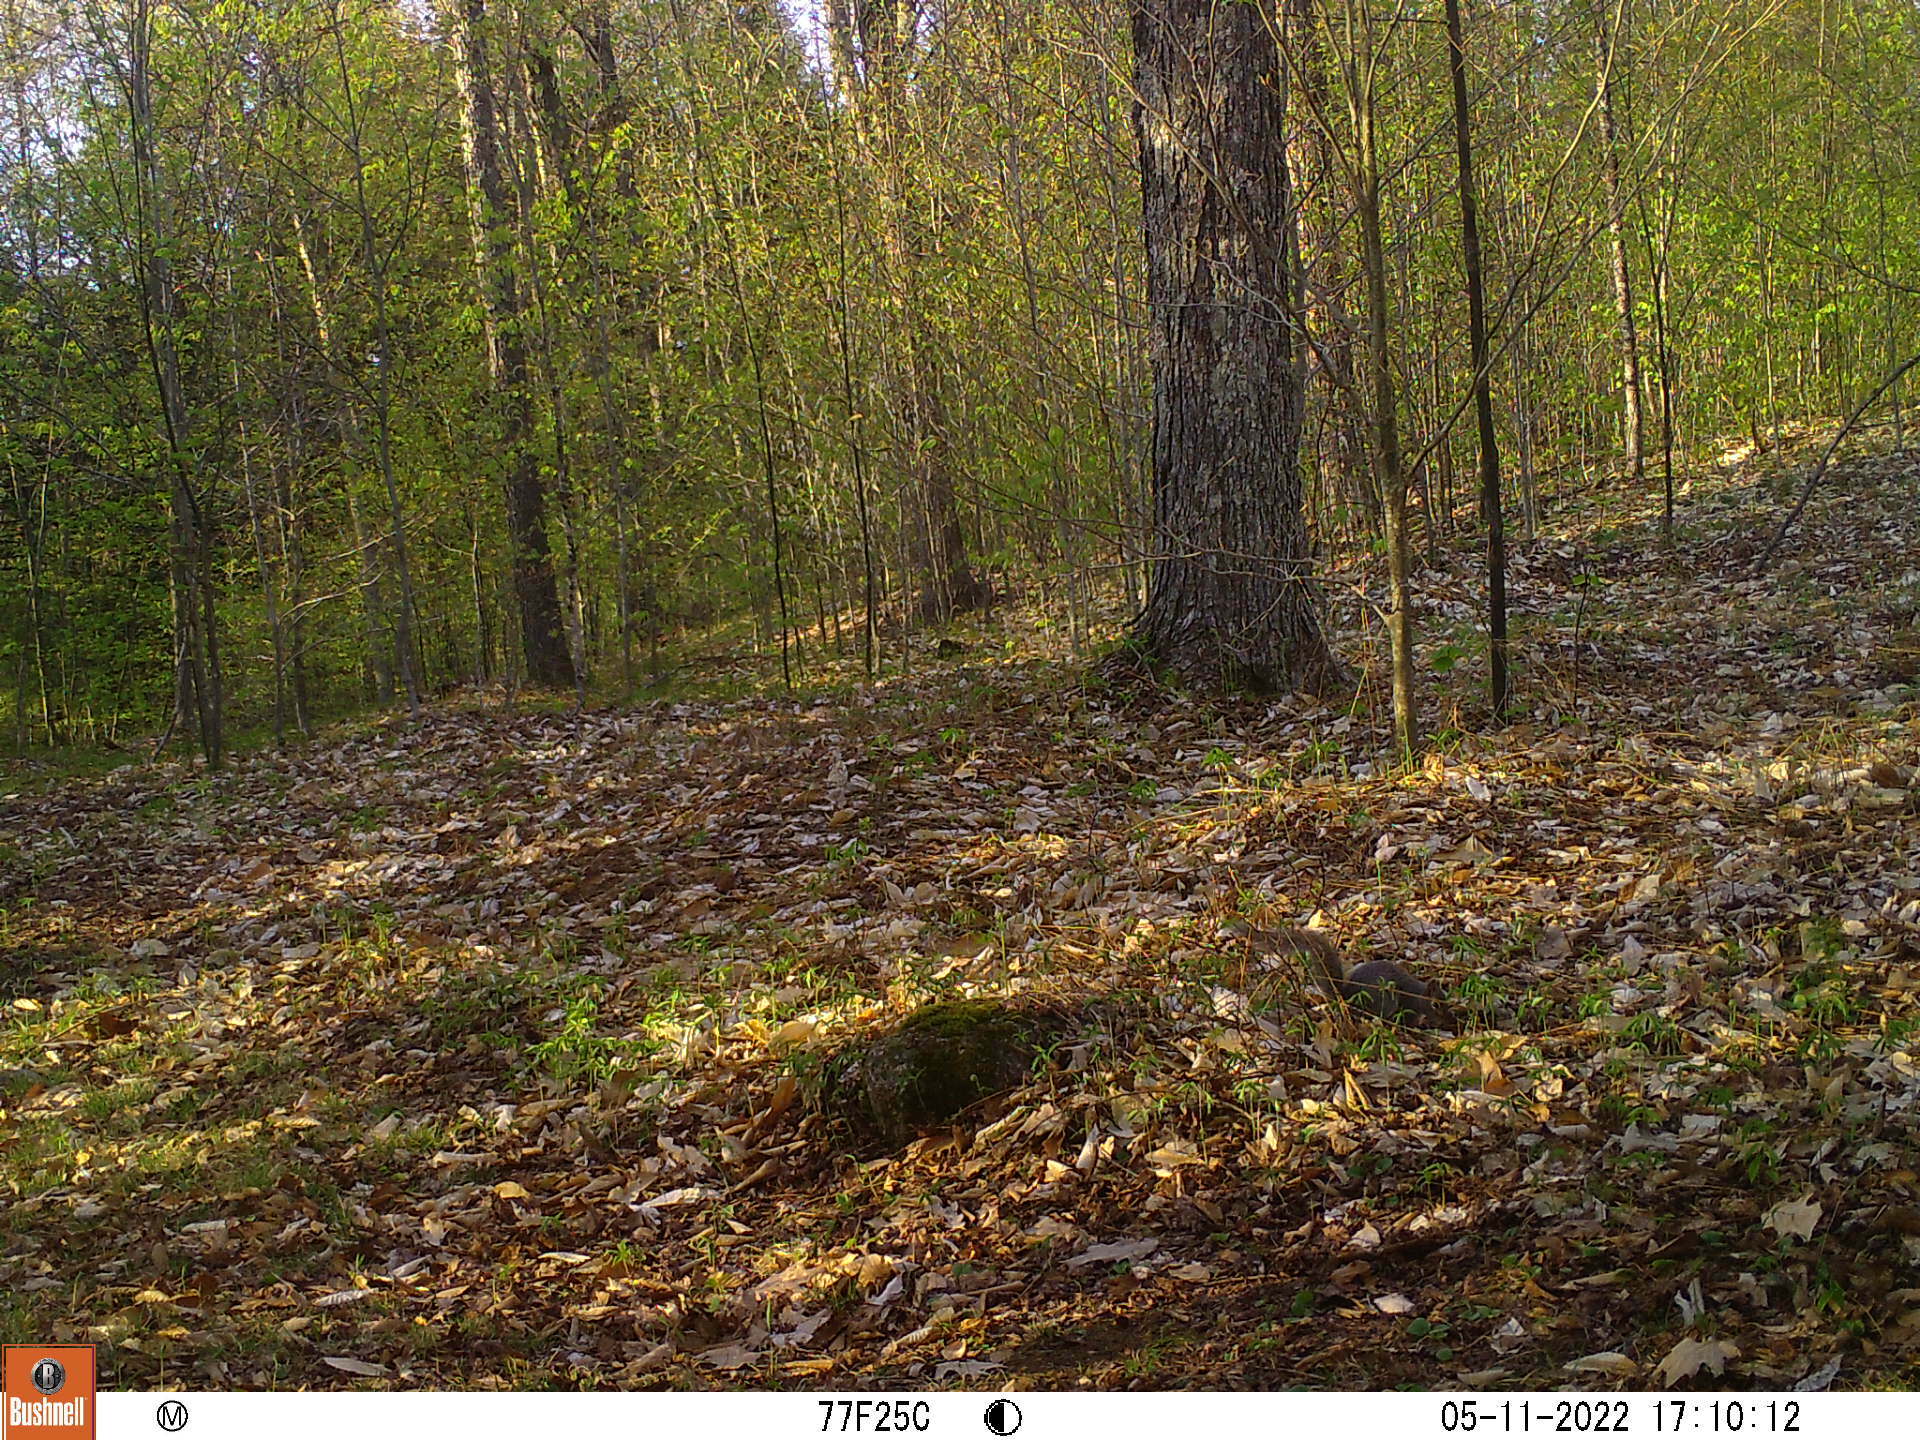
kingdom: Animalia
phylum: Chordata
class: Mammalia
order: Rodentia
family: Sciuridae
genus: Sciurus
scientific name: Sciurus carolinensis
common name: Eastern gray squirrel
